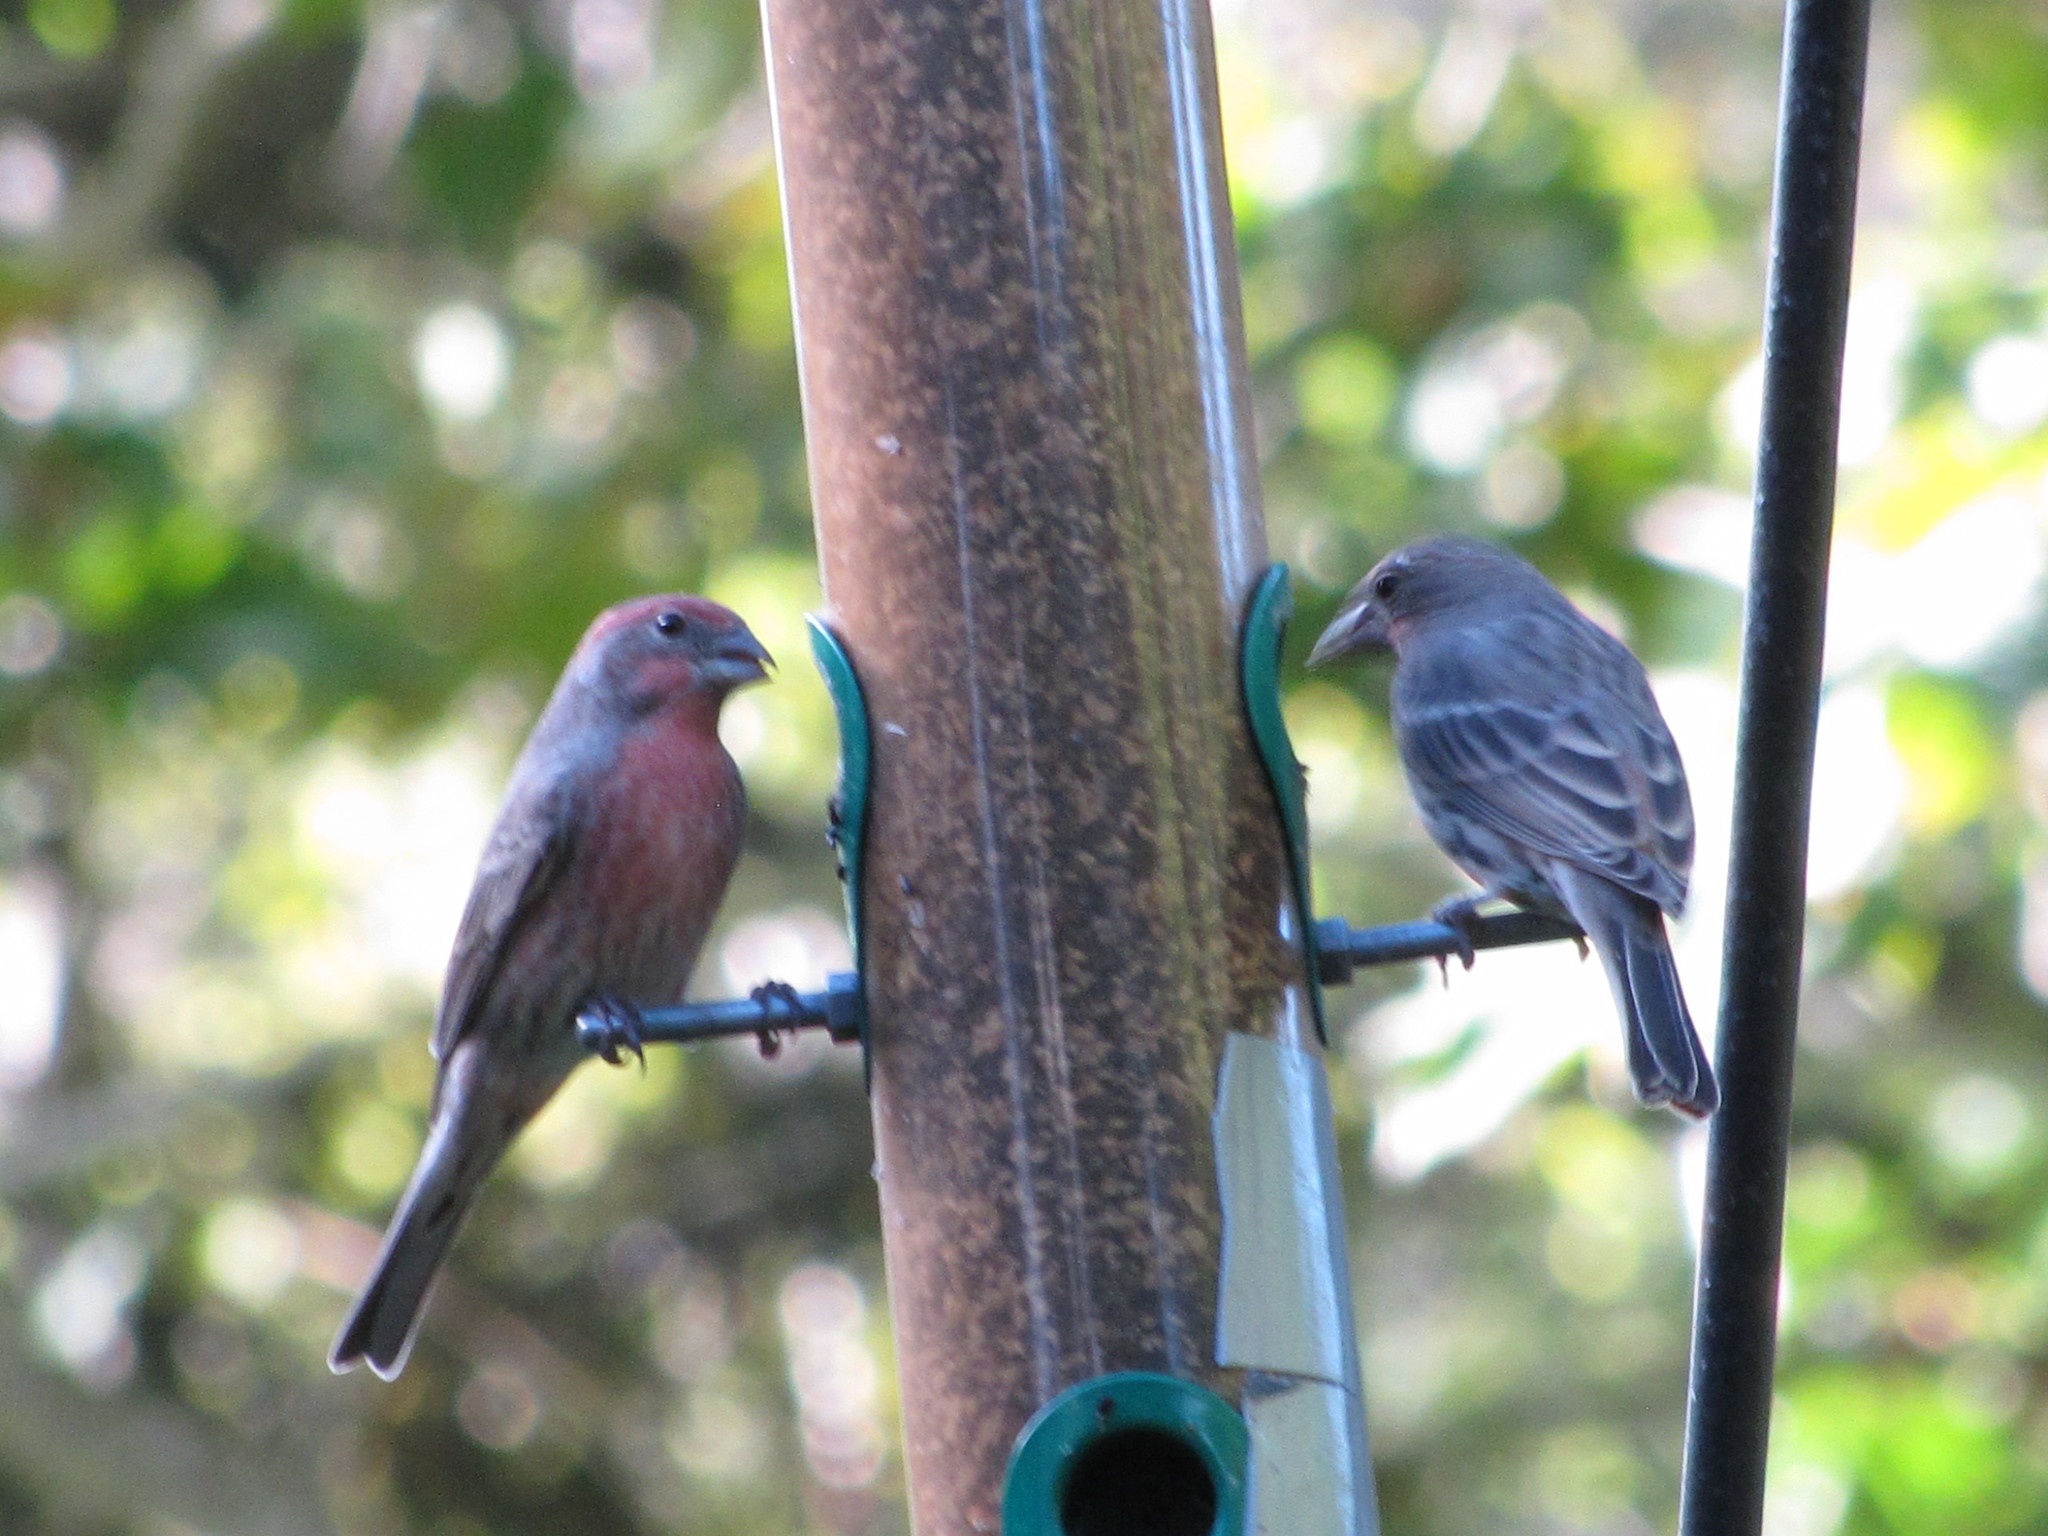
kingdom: Animalia
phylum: Chordata
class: Aves
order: Passeriformes
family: Fringillidae
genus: Haemorhous
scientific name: Haemorhous mexicanus
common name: House finch
